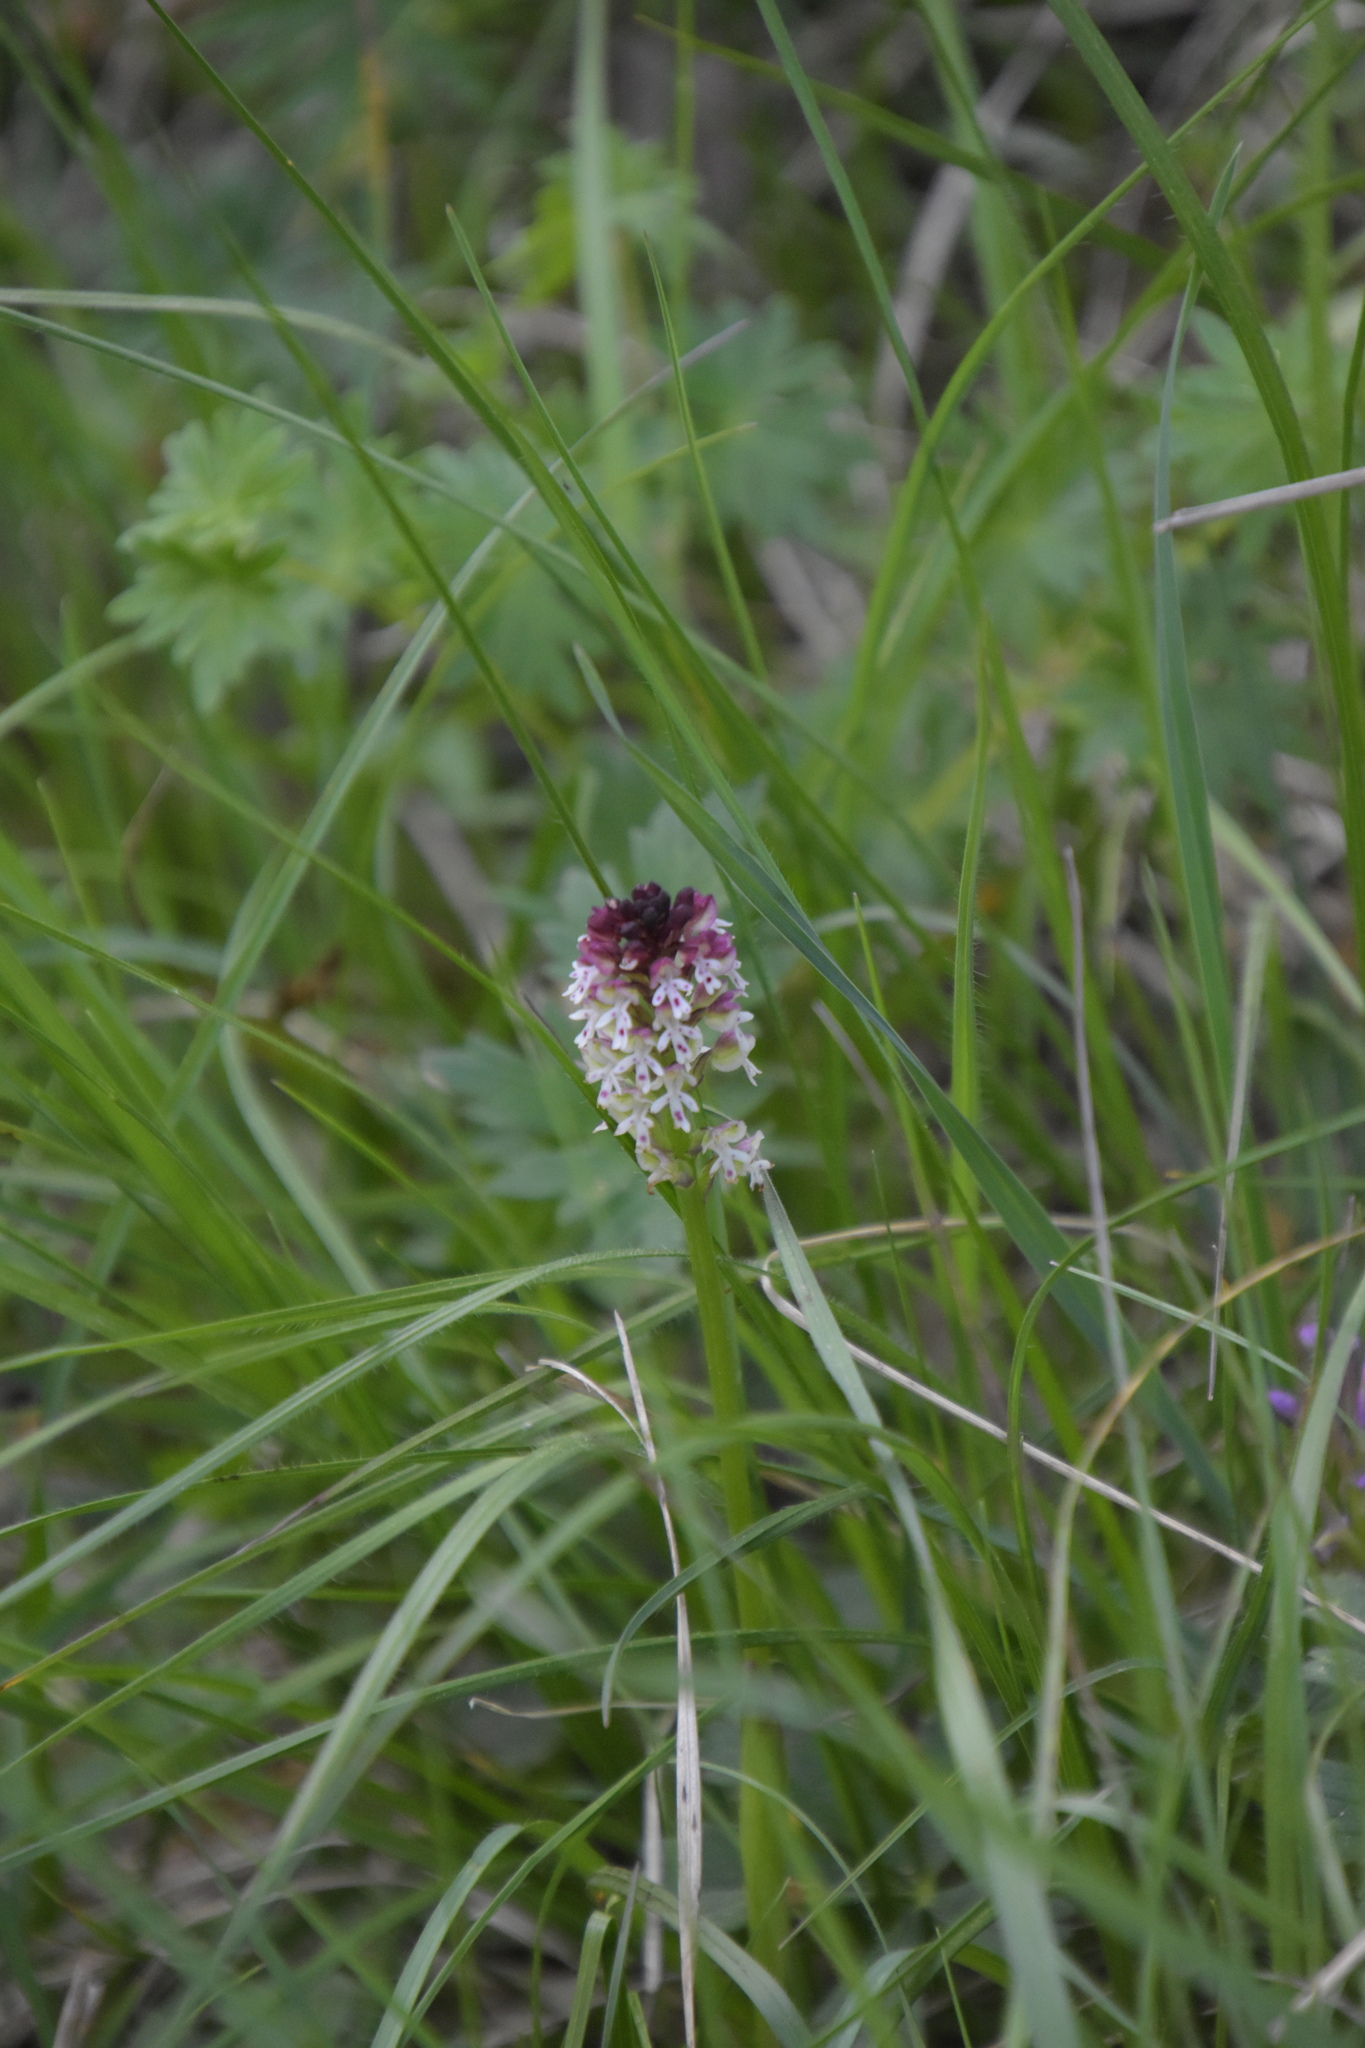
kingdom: Plantae
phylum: Tracheophyta
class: Liliopsida
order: Asparagales
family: Orchidaceae
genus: Neotinea
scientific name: Neotinea ustulata
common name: Burnt orchid
